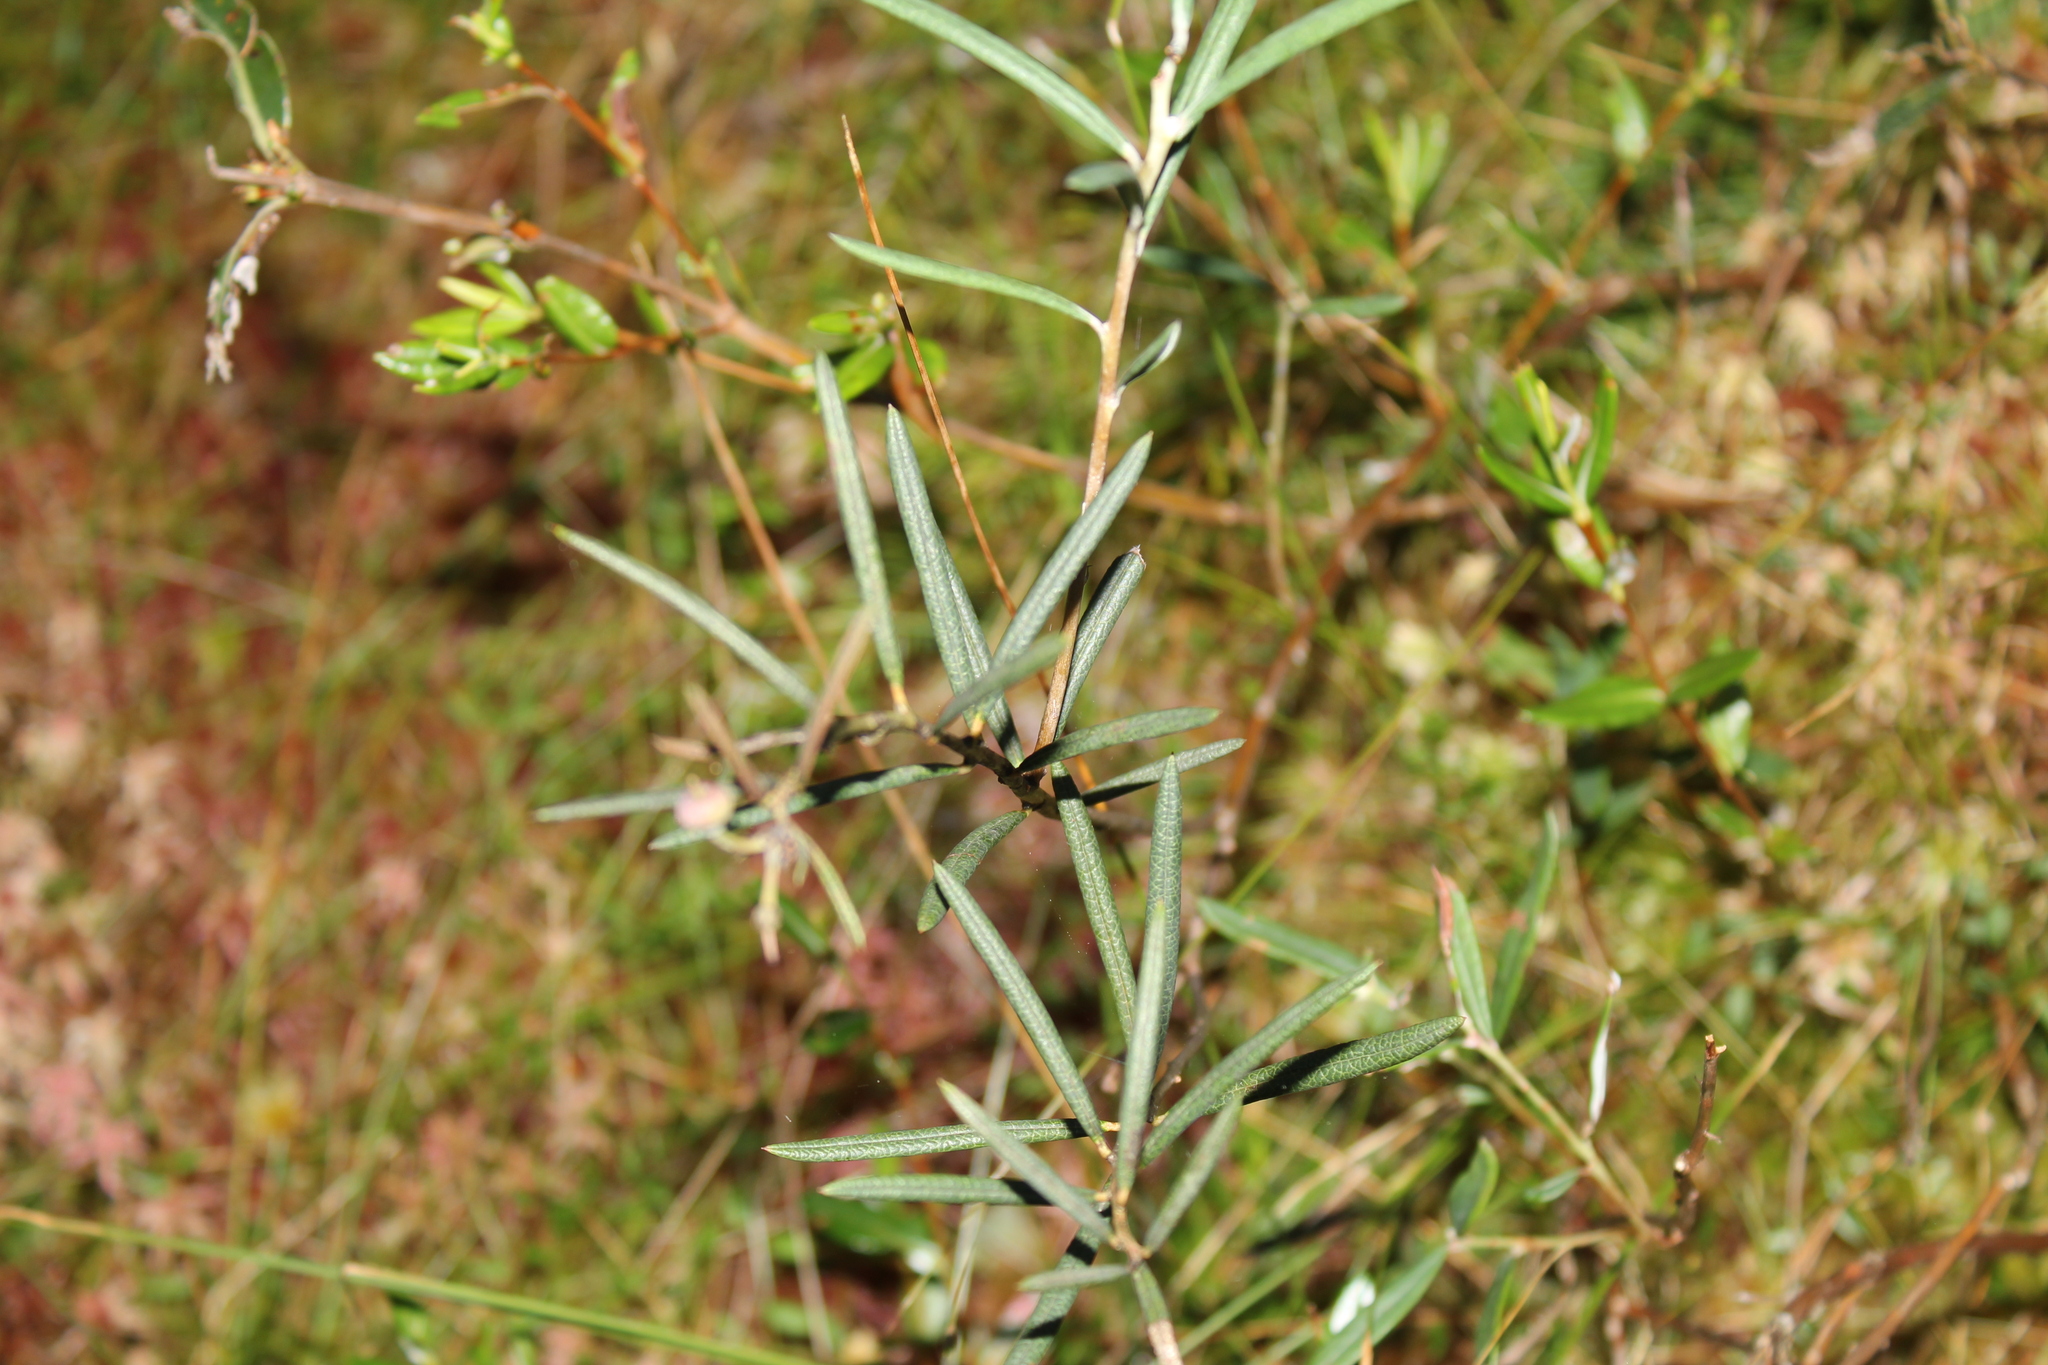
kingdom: Plantae
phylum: Tracheophyta
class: Magnoliopsida
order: Ericales
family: Ericaceae
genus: Andromeda
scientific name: Andromeda polifolia
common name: Bog-rosemary
